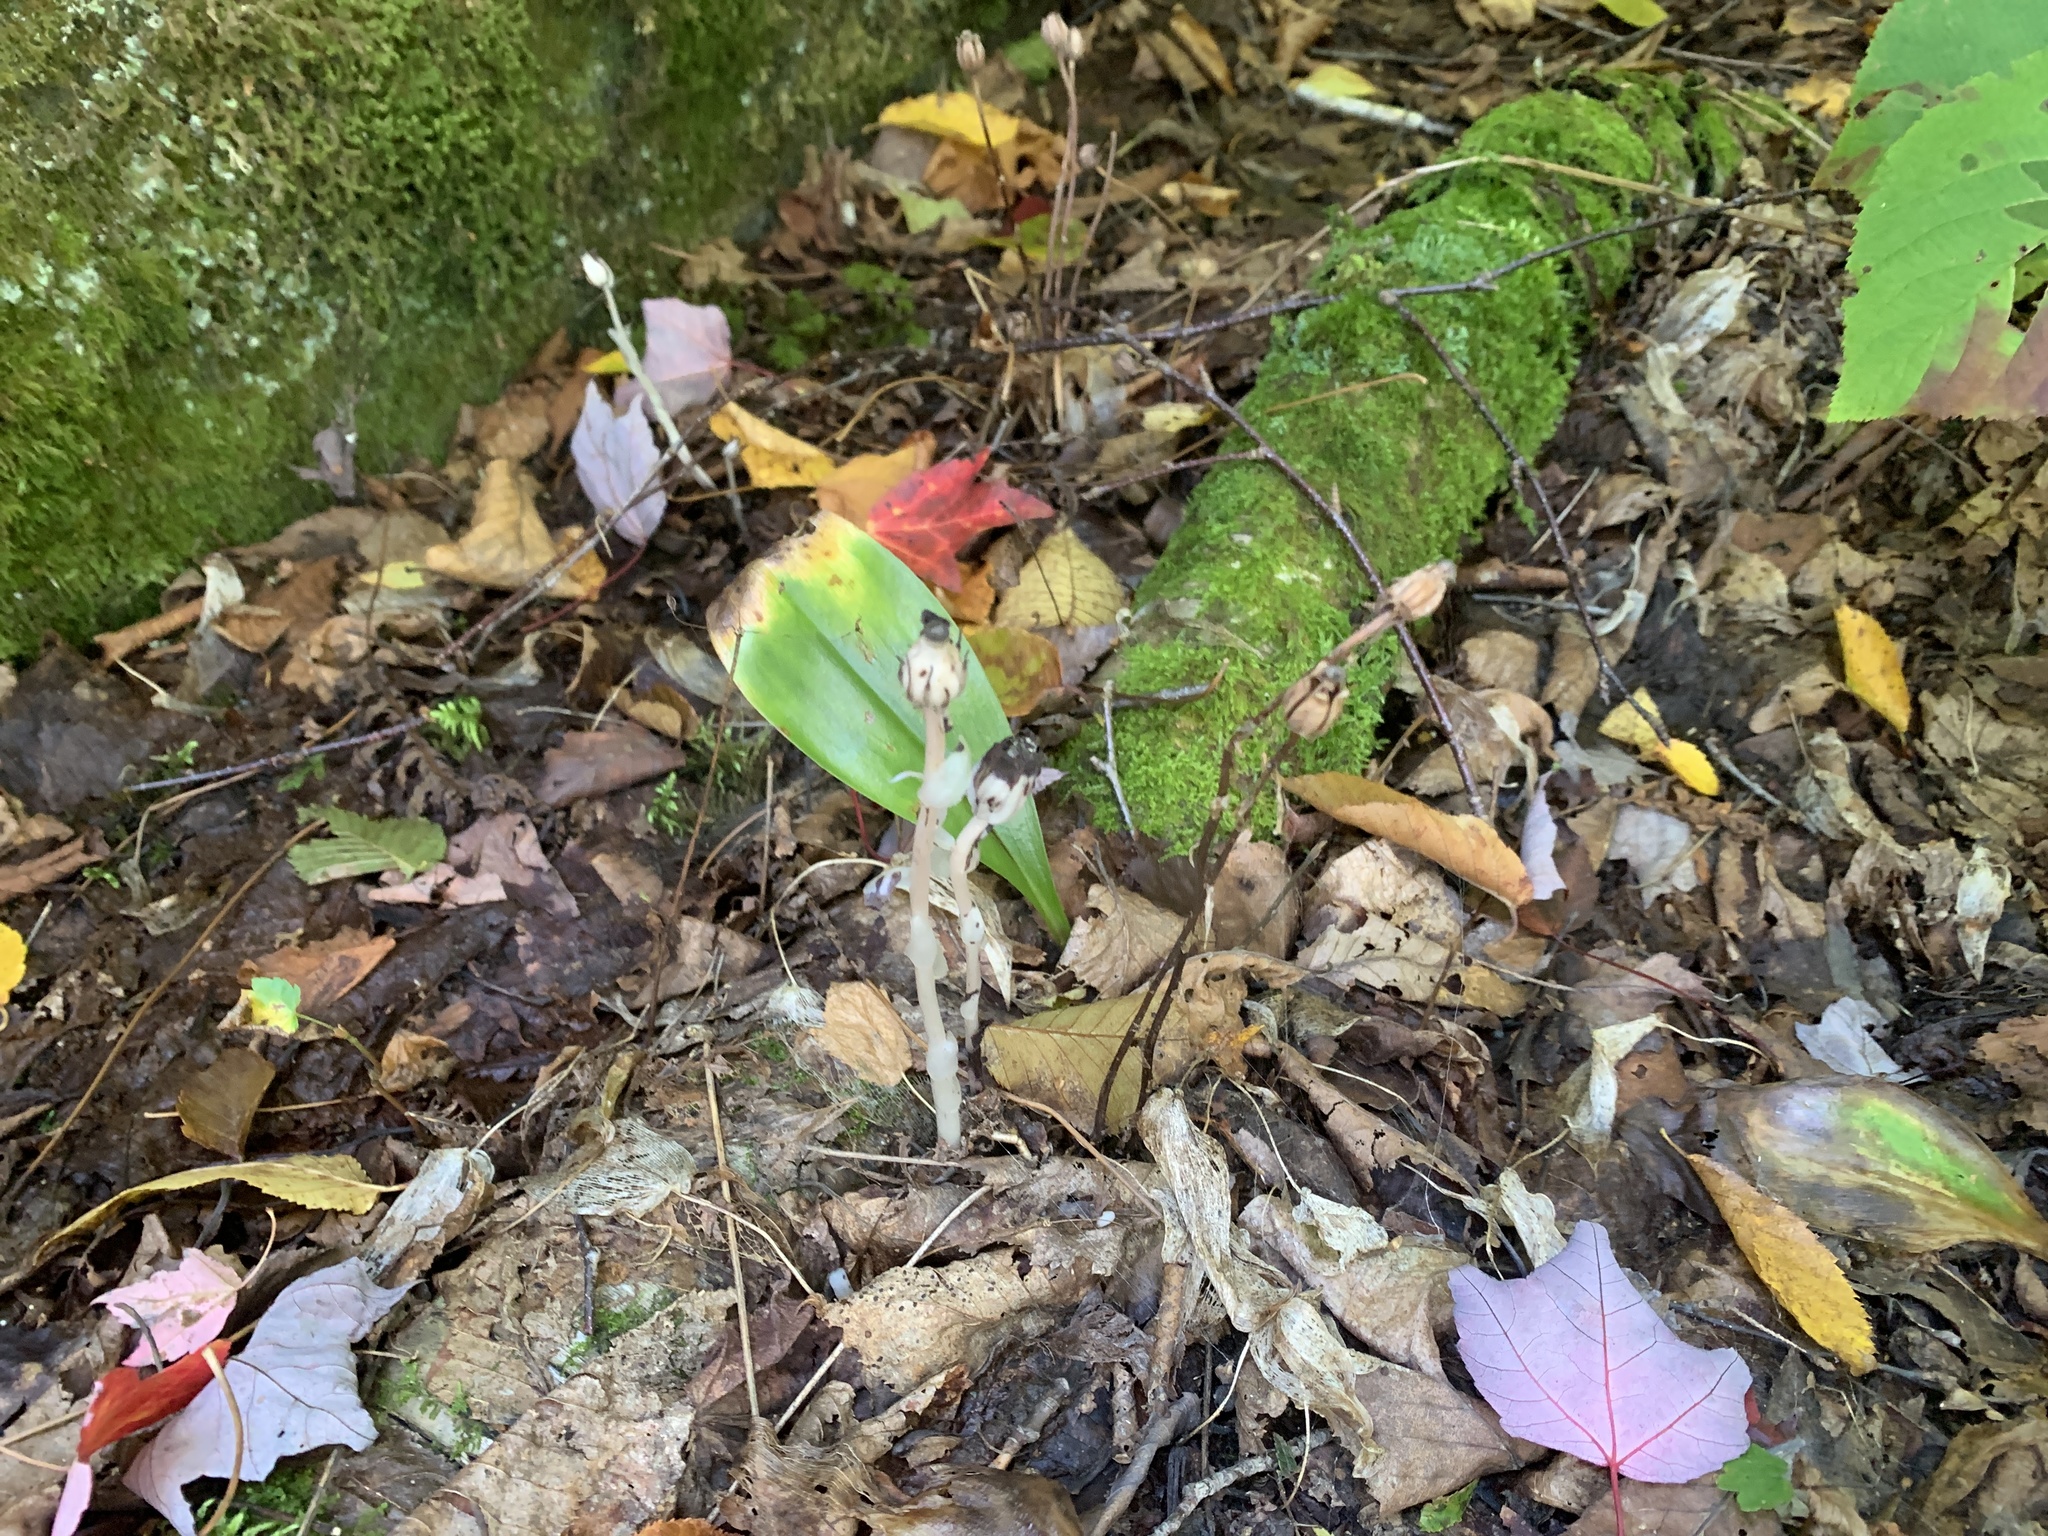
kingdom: Plantae
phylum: Tracheophyta
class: Magnoliopsida
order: Ericales
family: Ericaceae
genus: Monotropa
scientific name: Monotropa uniflora
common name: Convulsion root
